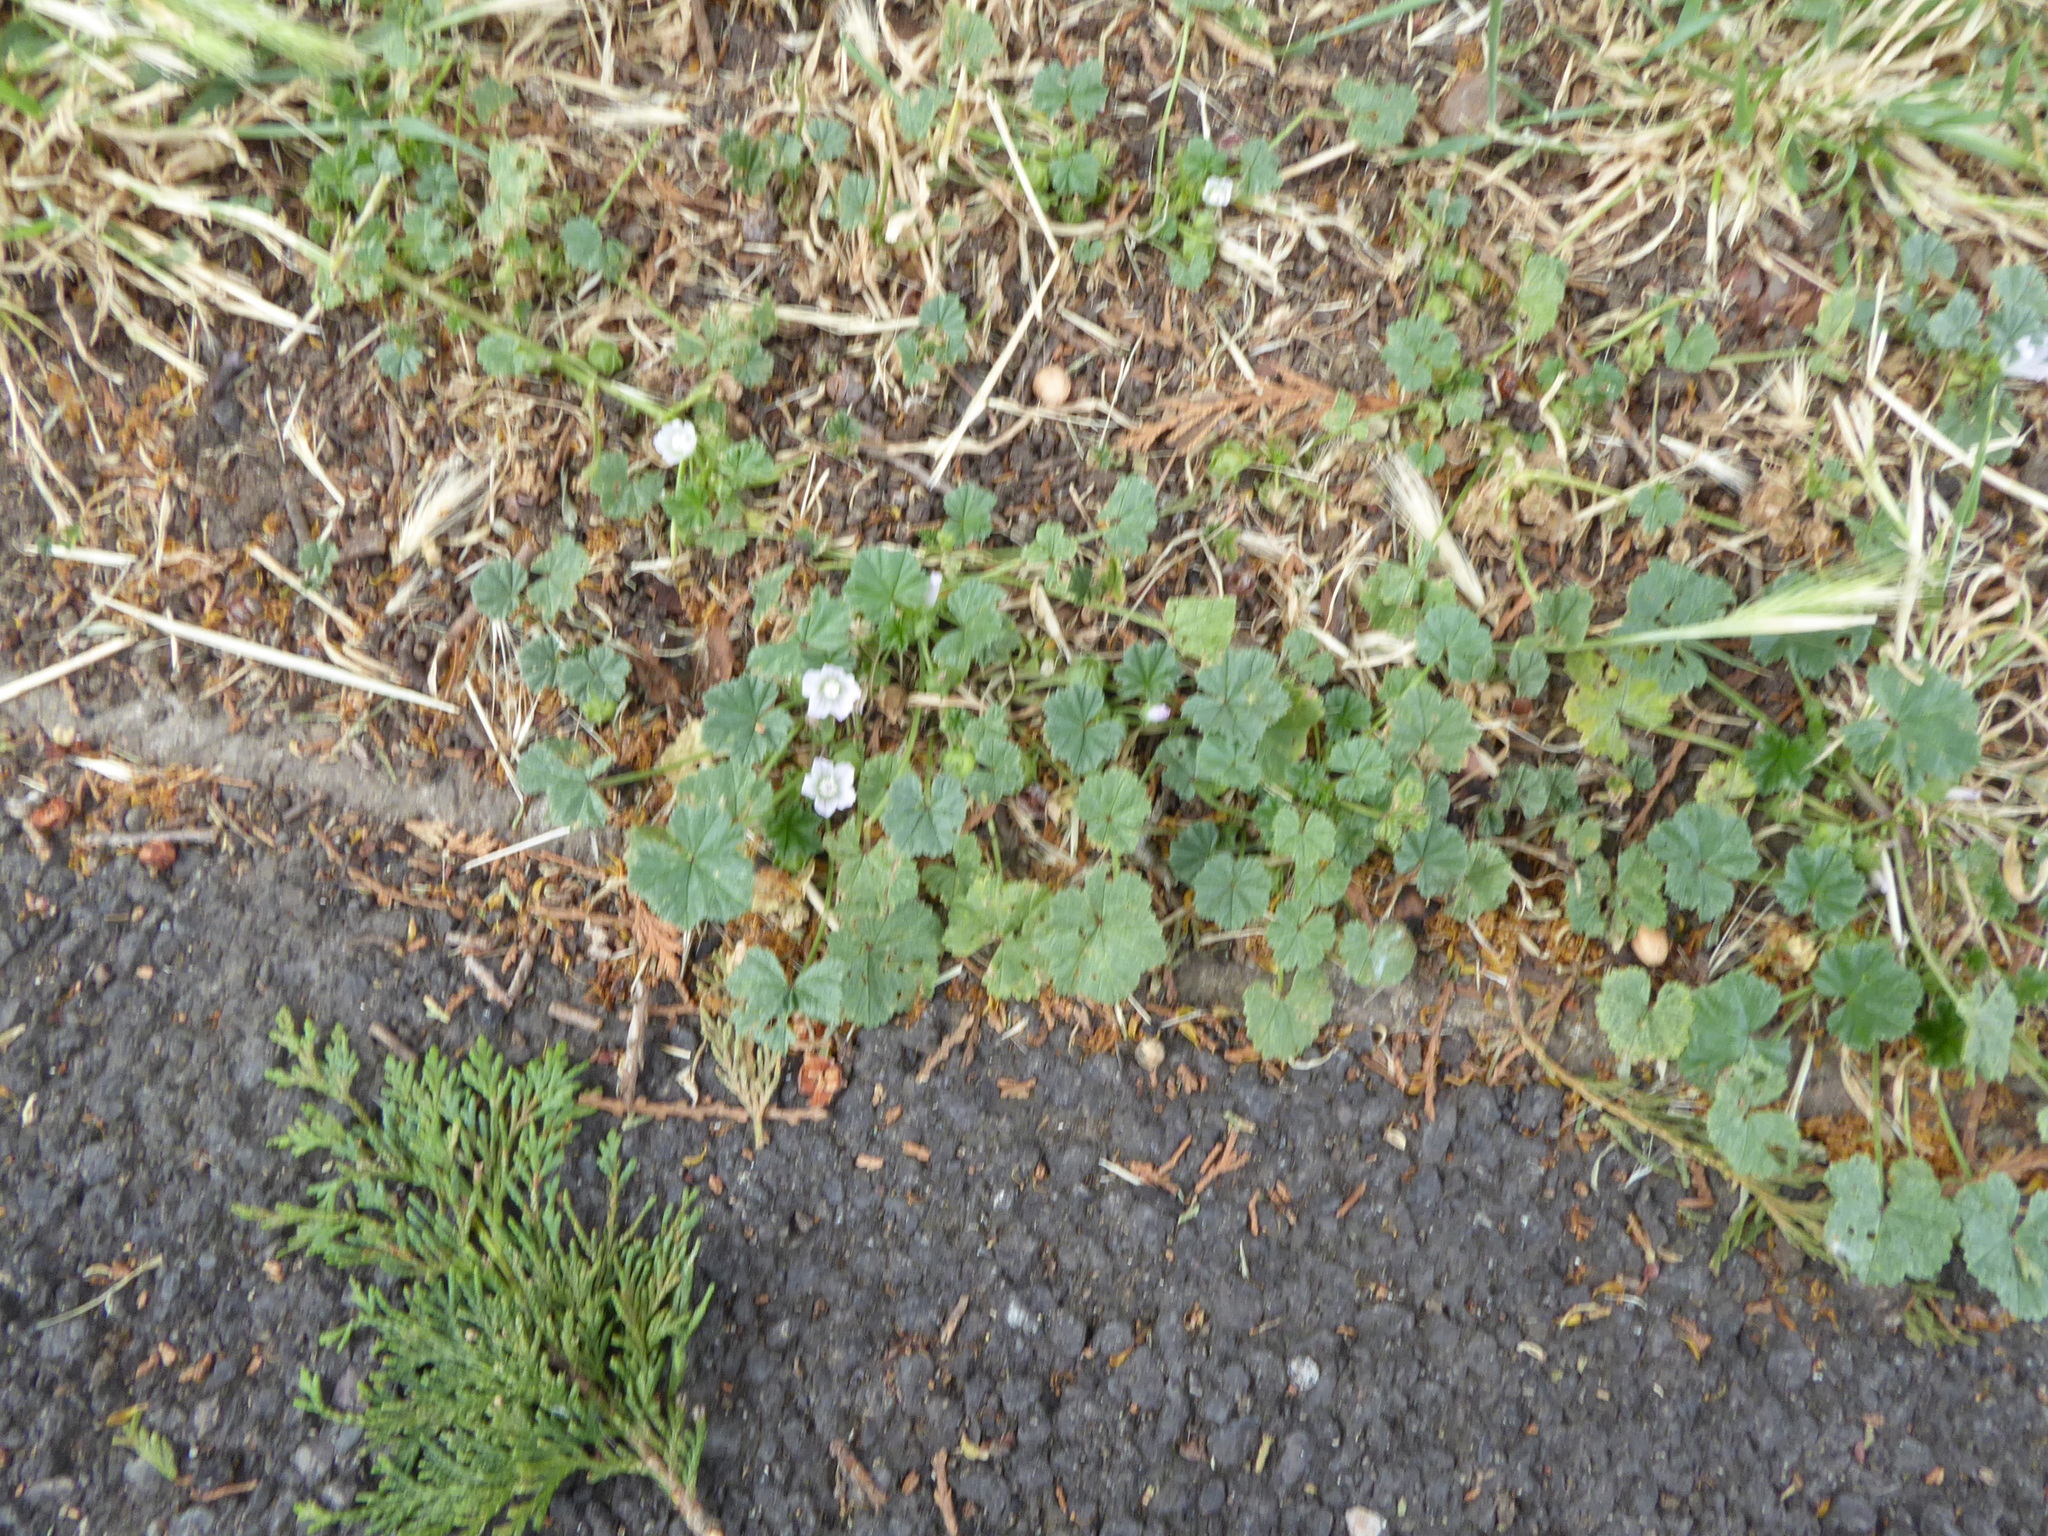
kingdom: Plantae
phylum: Tracheophyta
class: Magnoliopsida
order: Malvales
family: Malvaceae
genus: Malva
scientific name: Malva neglecta
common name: Common mallow
